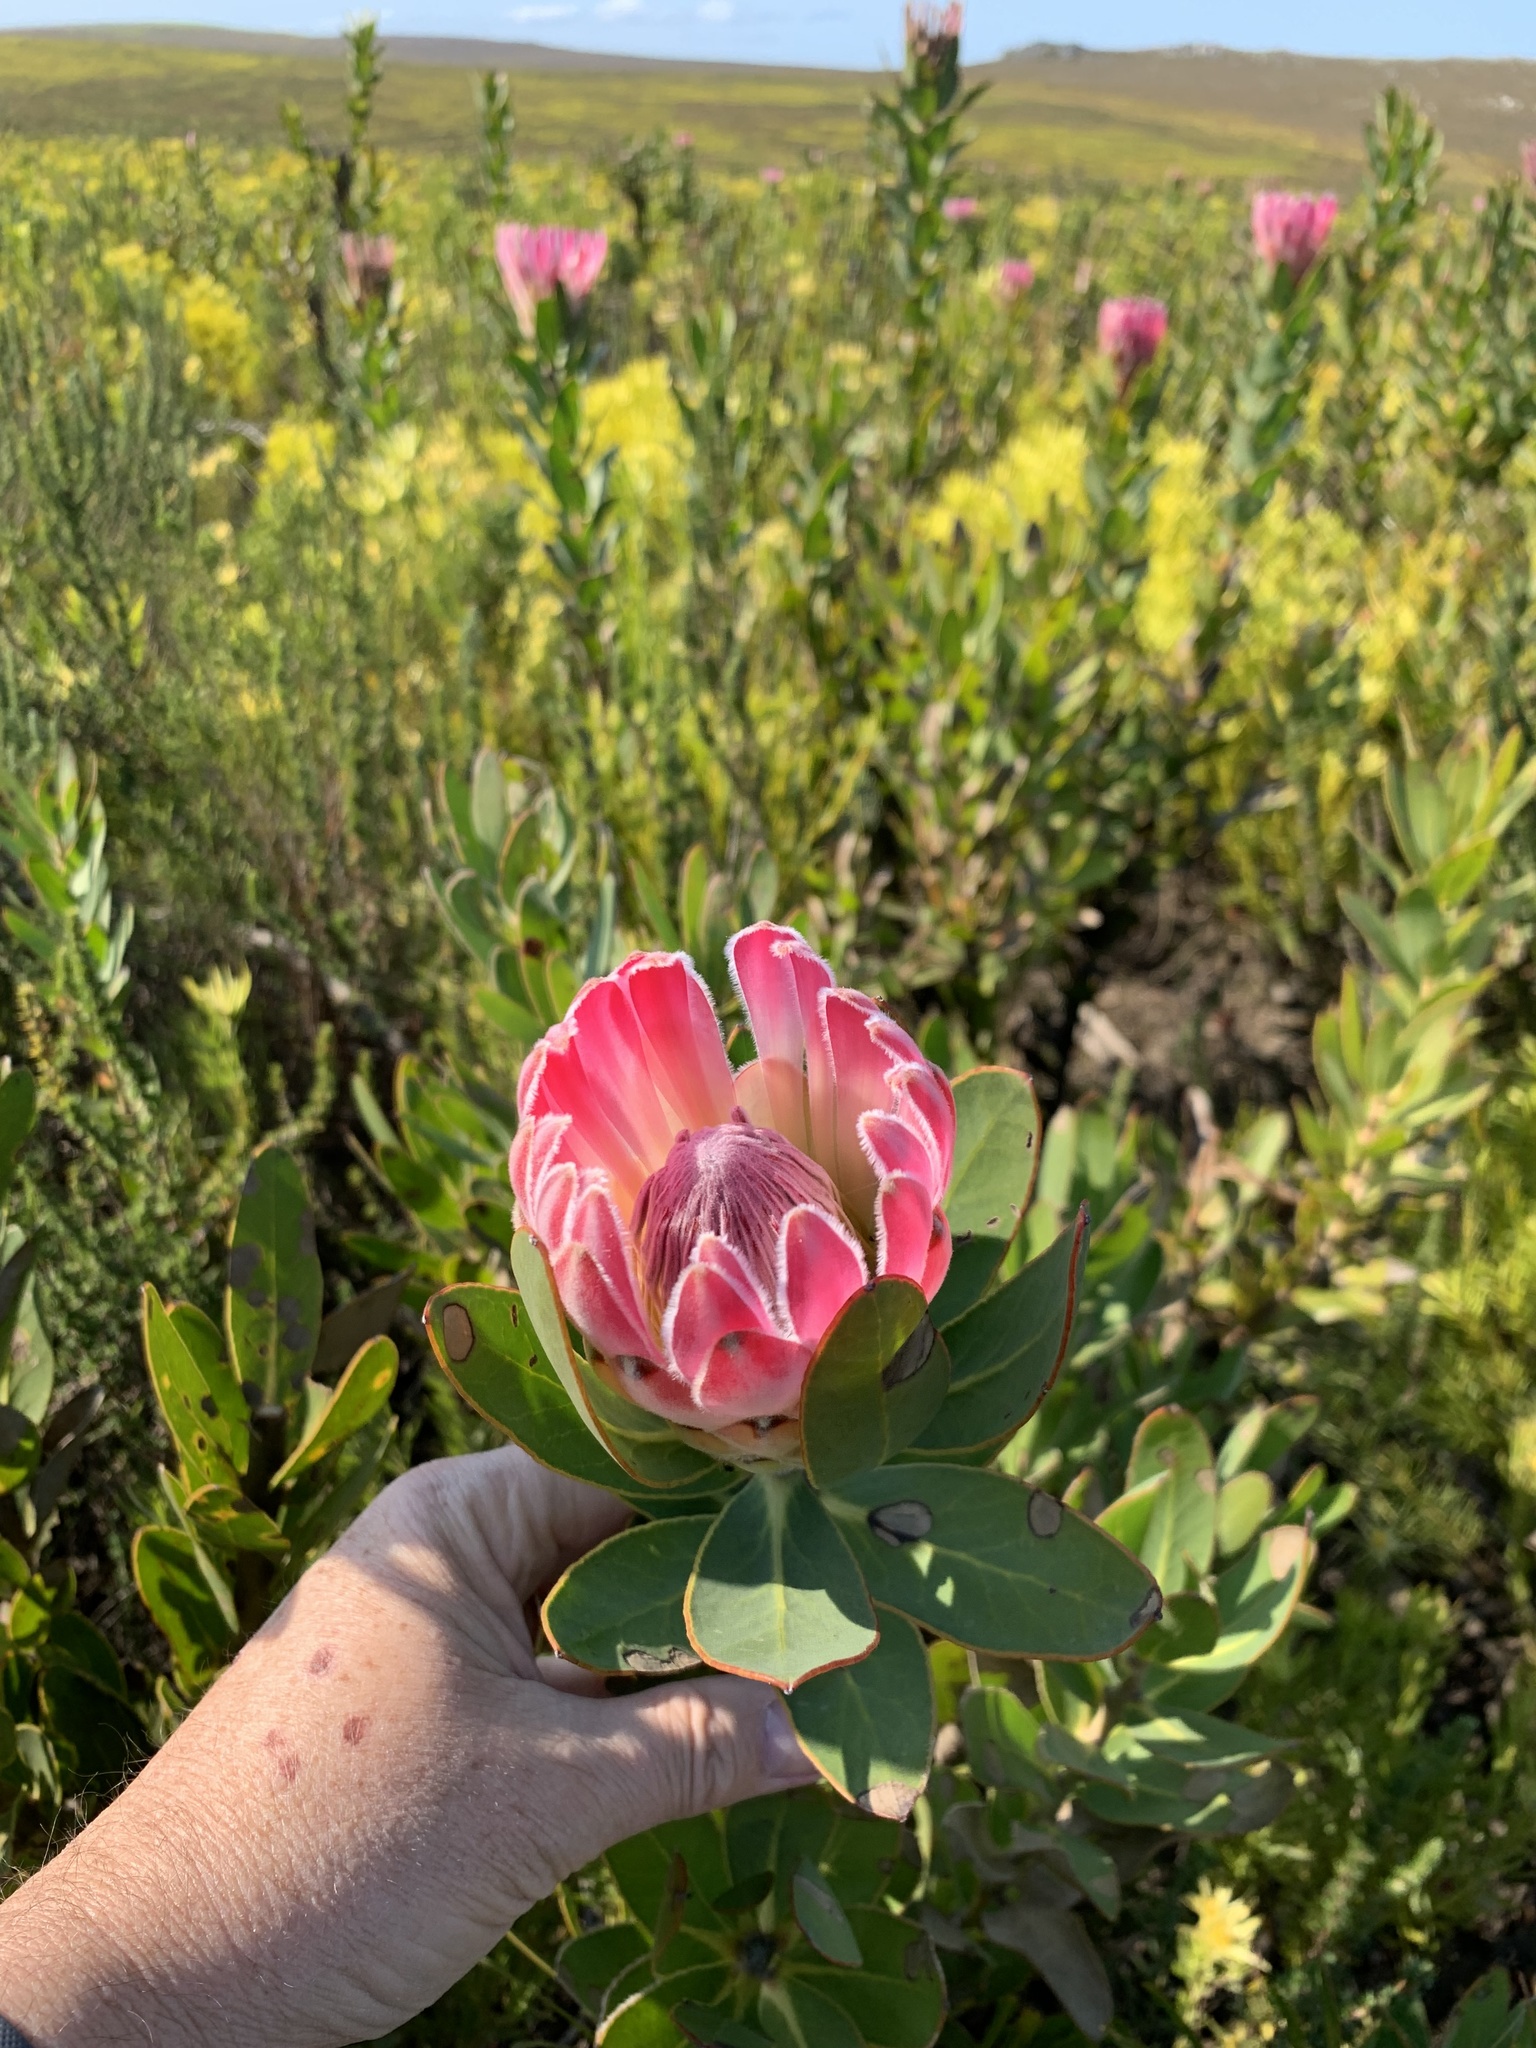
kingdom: Plantae
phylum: Tracheophyta
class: Magnoliopsida
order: Proteales
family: Proteaceae
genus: Protea
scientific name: Protea compacta
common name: Bot river protea
